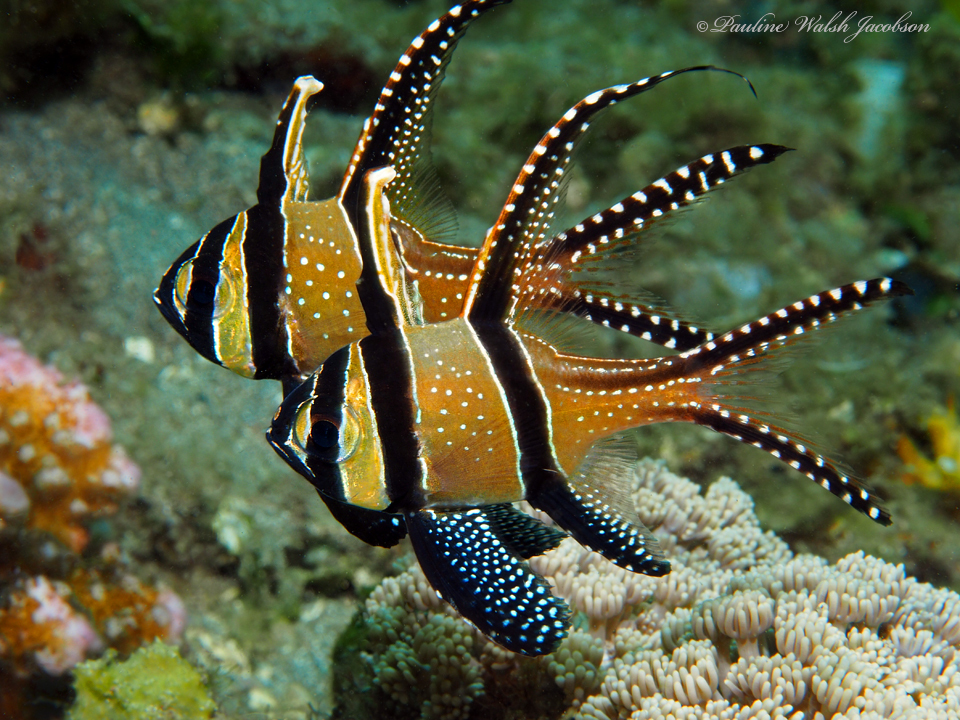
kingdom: Animalia
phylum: Chordata
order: Perciformes
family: Apogonidae
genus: Pterapogon
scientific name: Pterapogon kauderni
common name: Banggai cardinalfish
